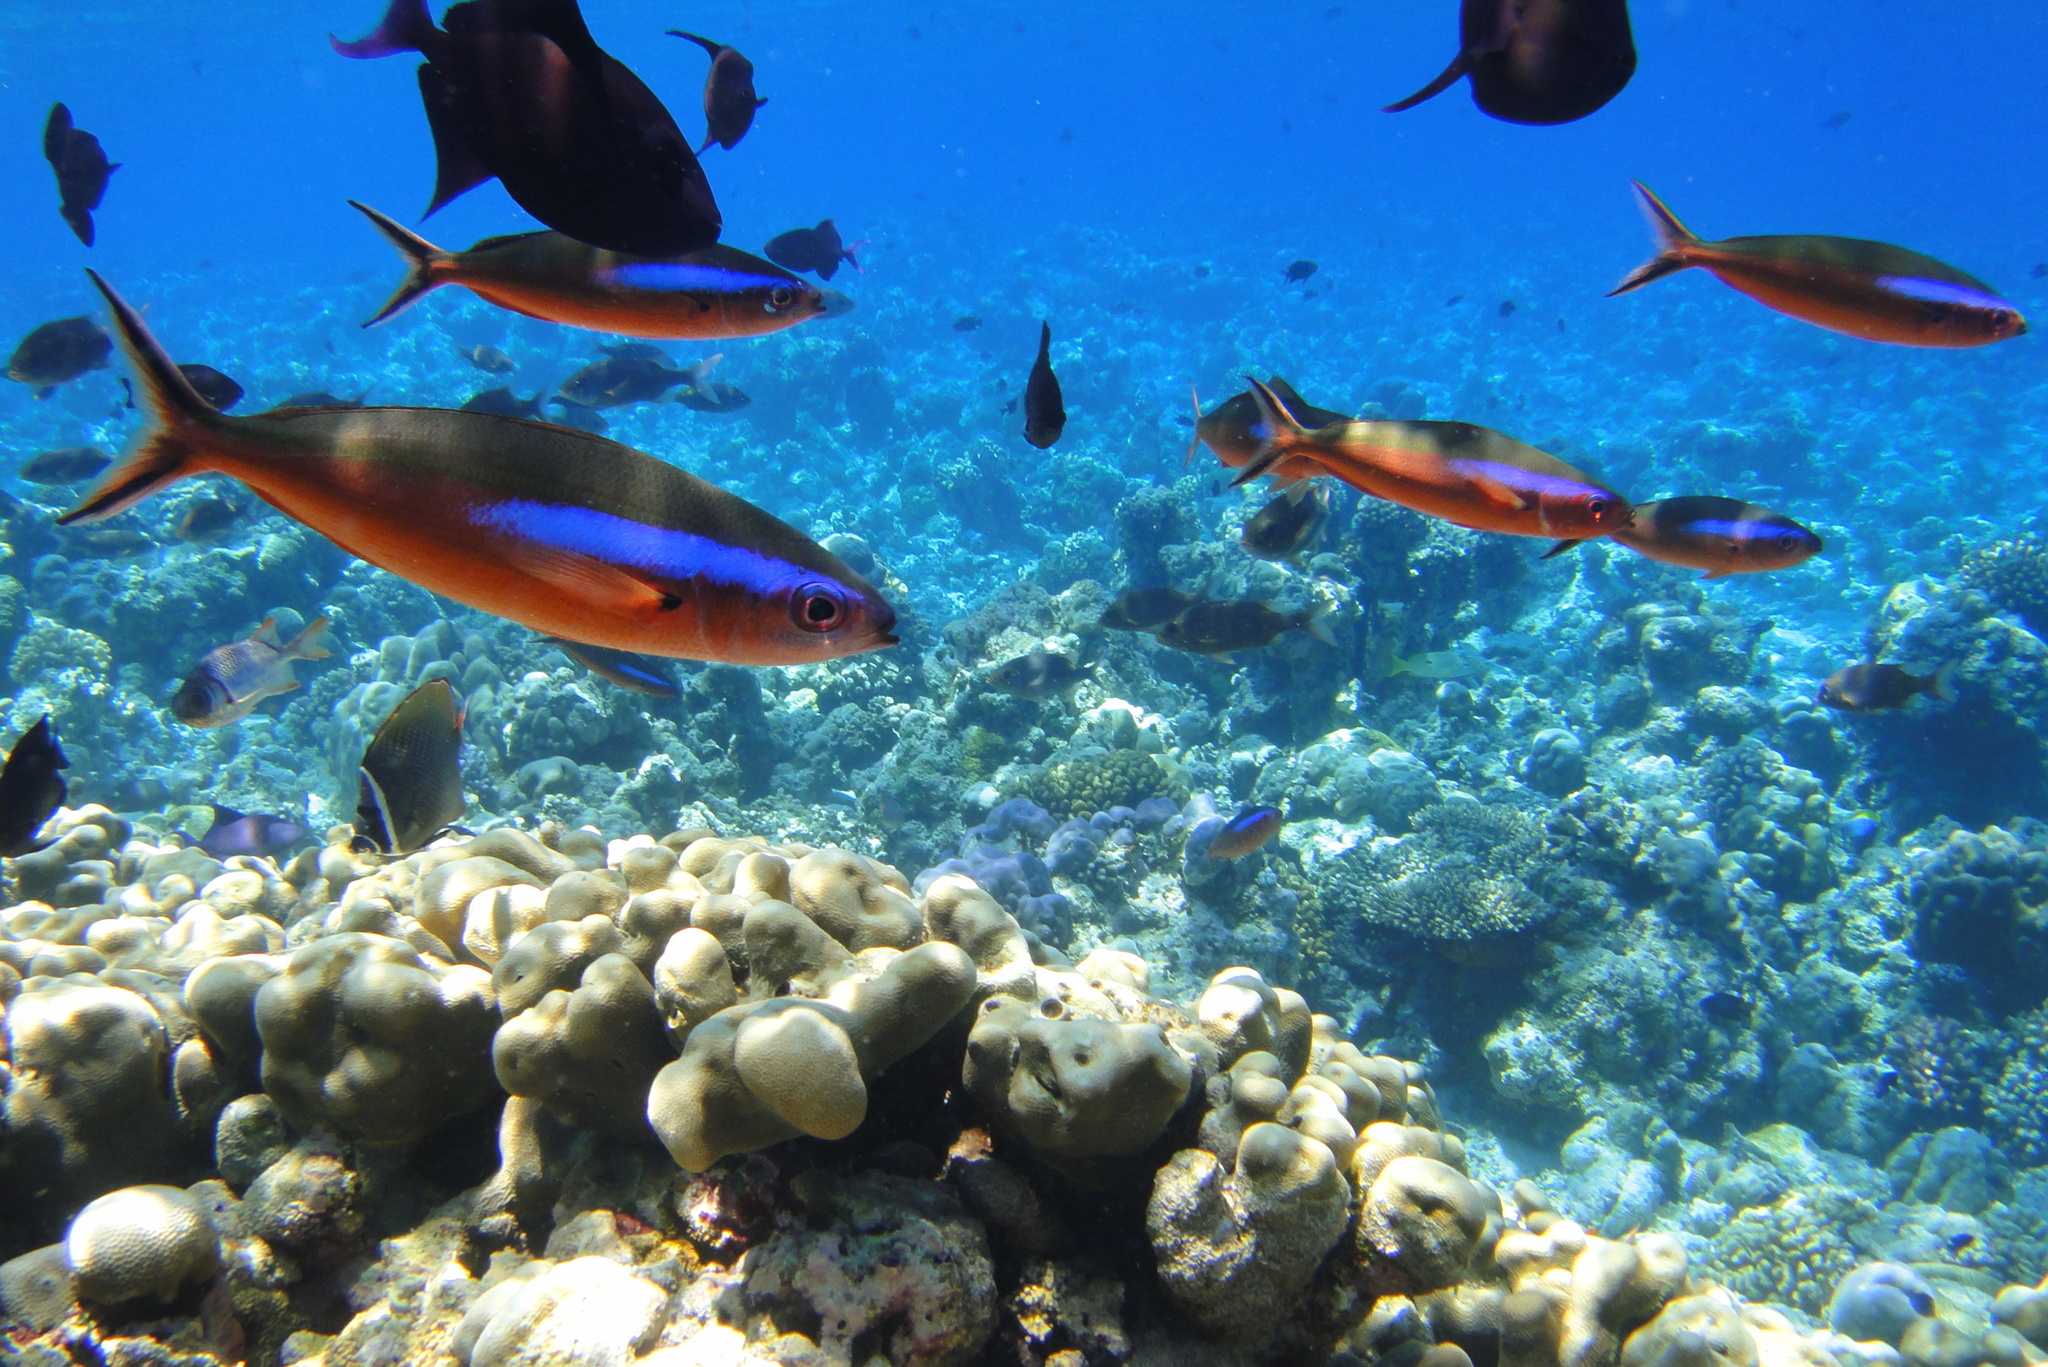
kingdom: Animalia
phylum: Chordata
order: Perciformes
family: Caesionidae
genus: Pterocaesio
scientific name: Pterocaesio tile
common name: Dark-banded fusilier
